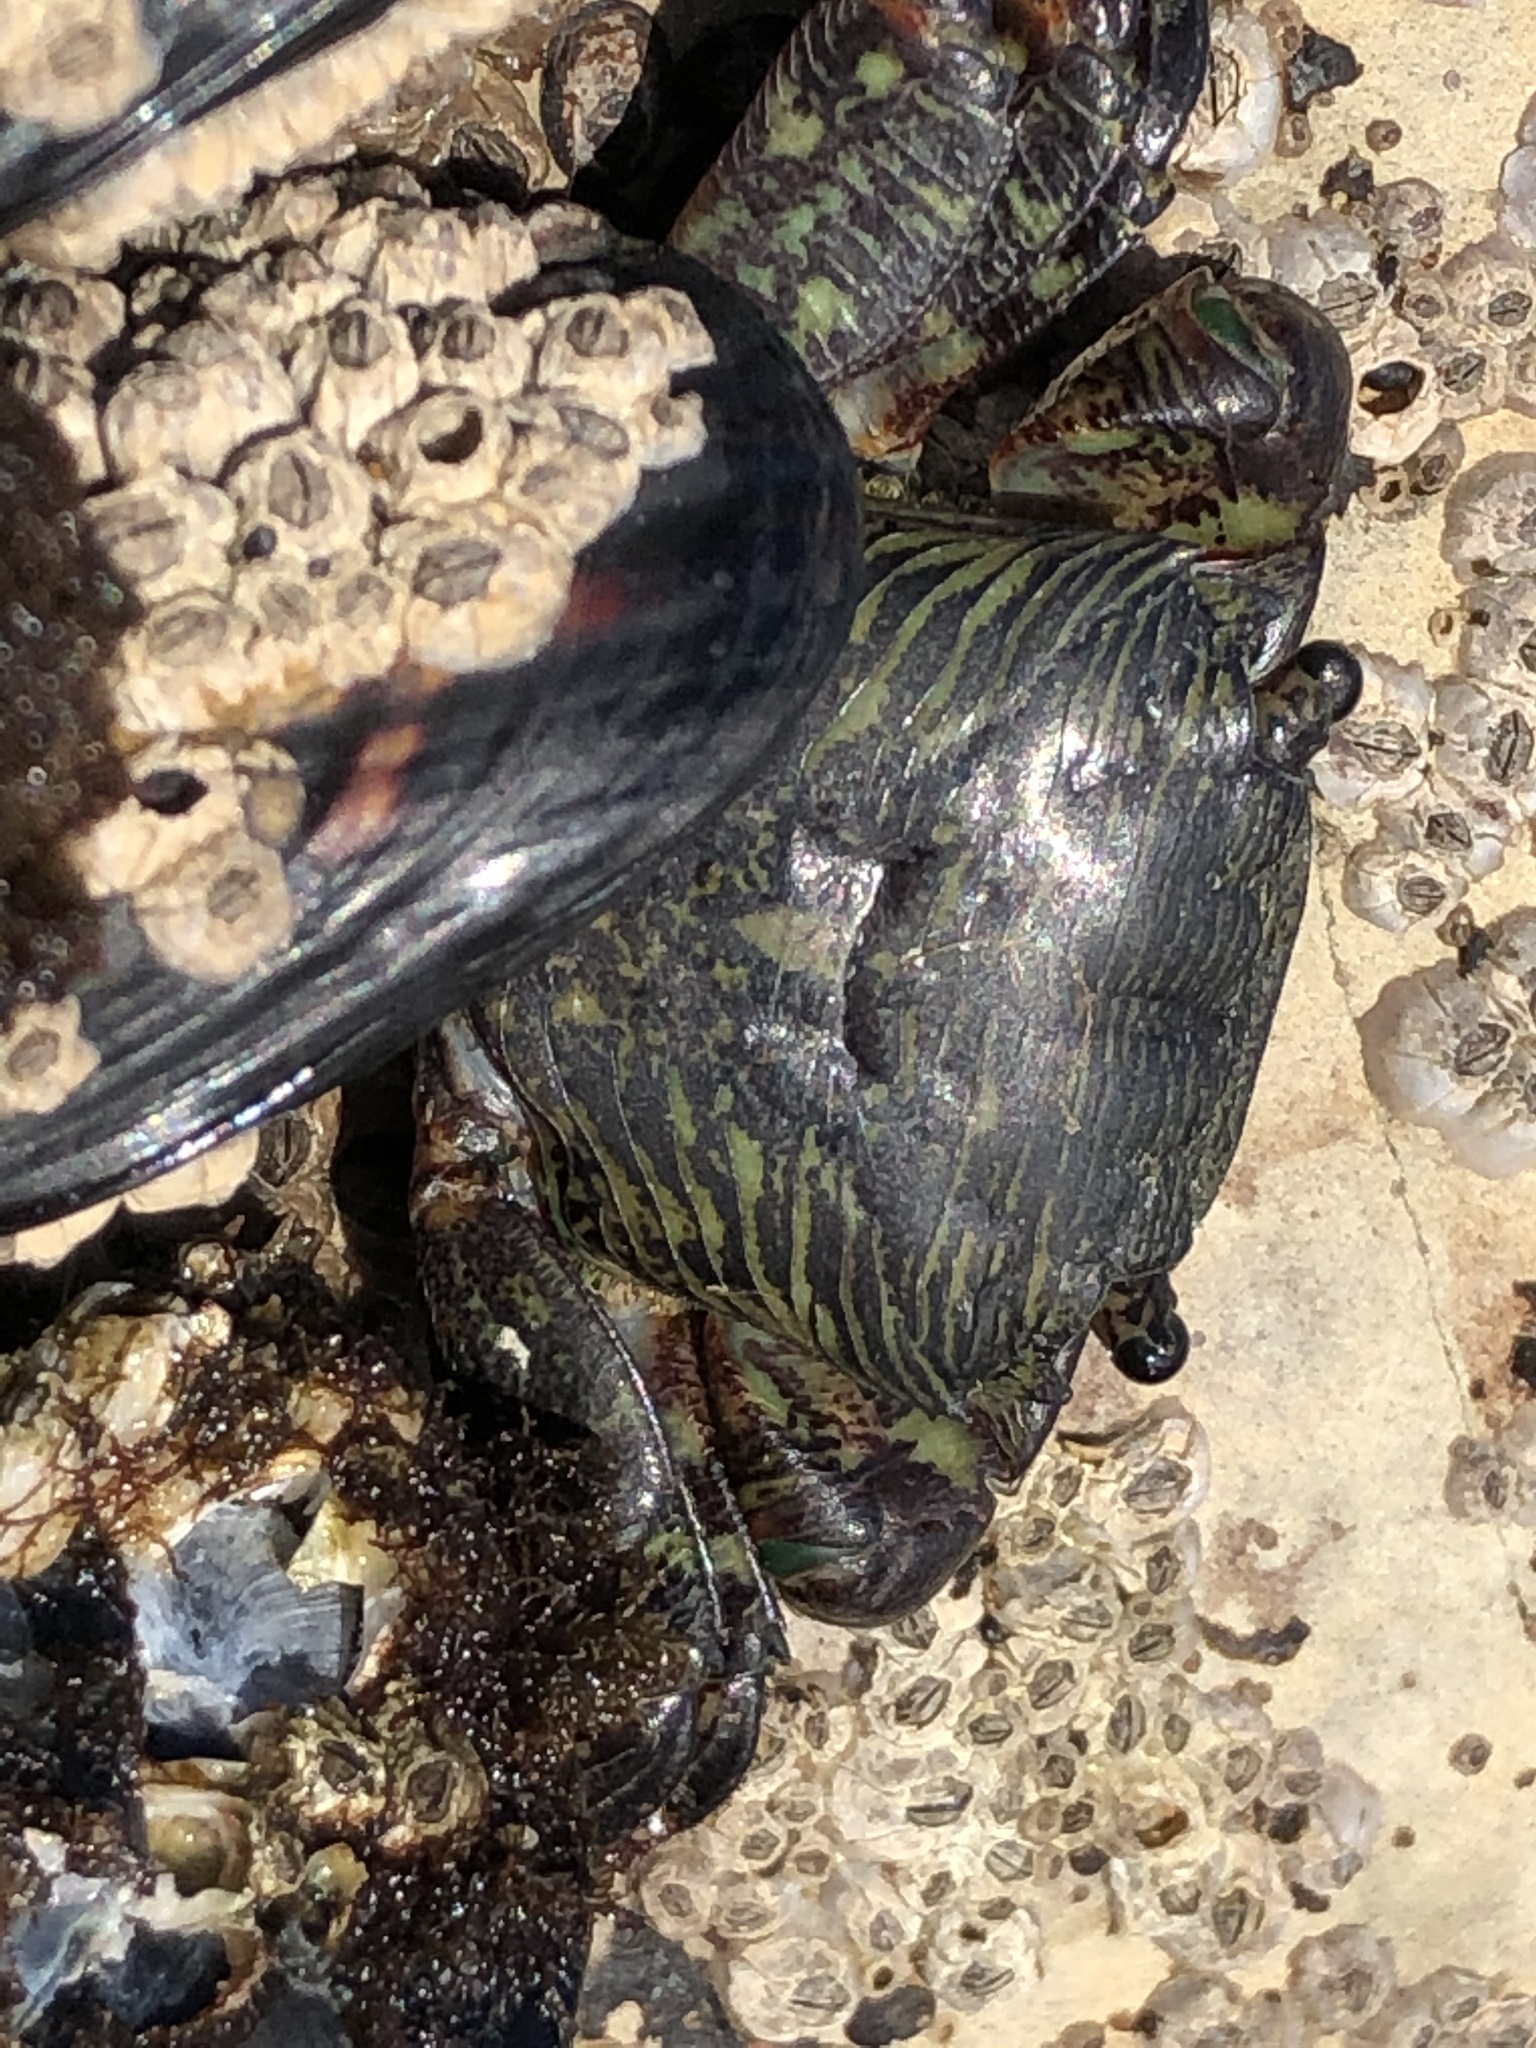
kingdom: Animalia
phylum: Arthropoda
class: Malacostraca
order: Decapoda
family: Grapsidae
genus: Pachygrapsus
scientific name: Pachygrapsus crassipes
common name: Striped shore crab
